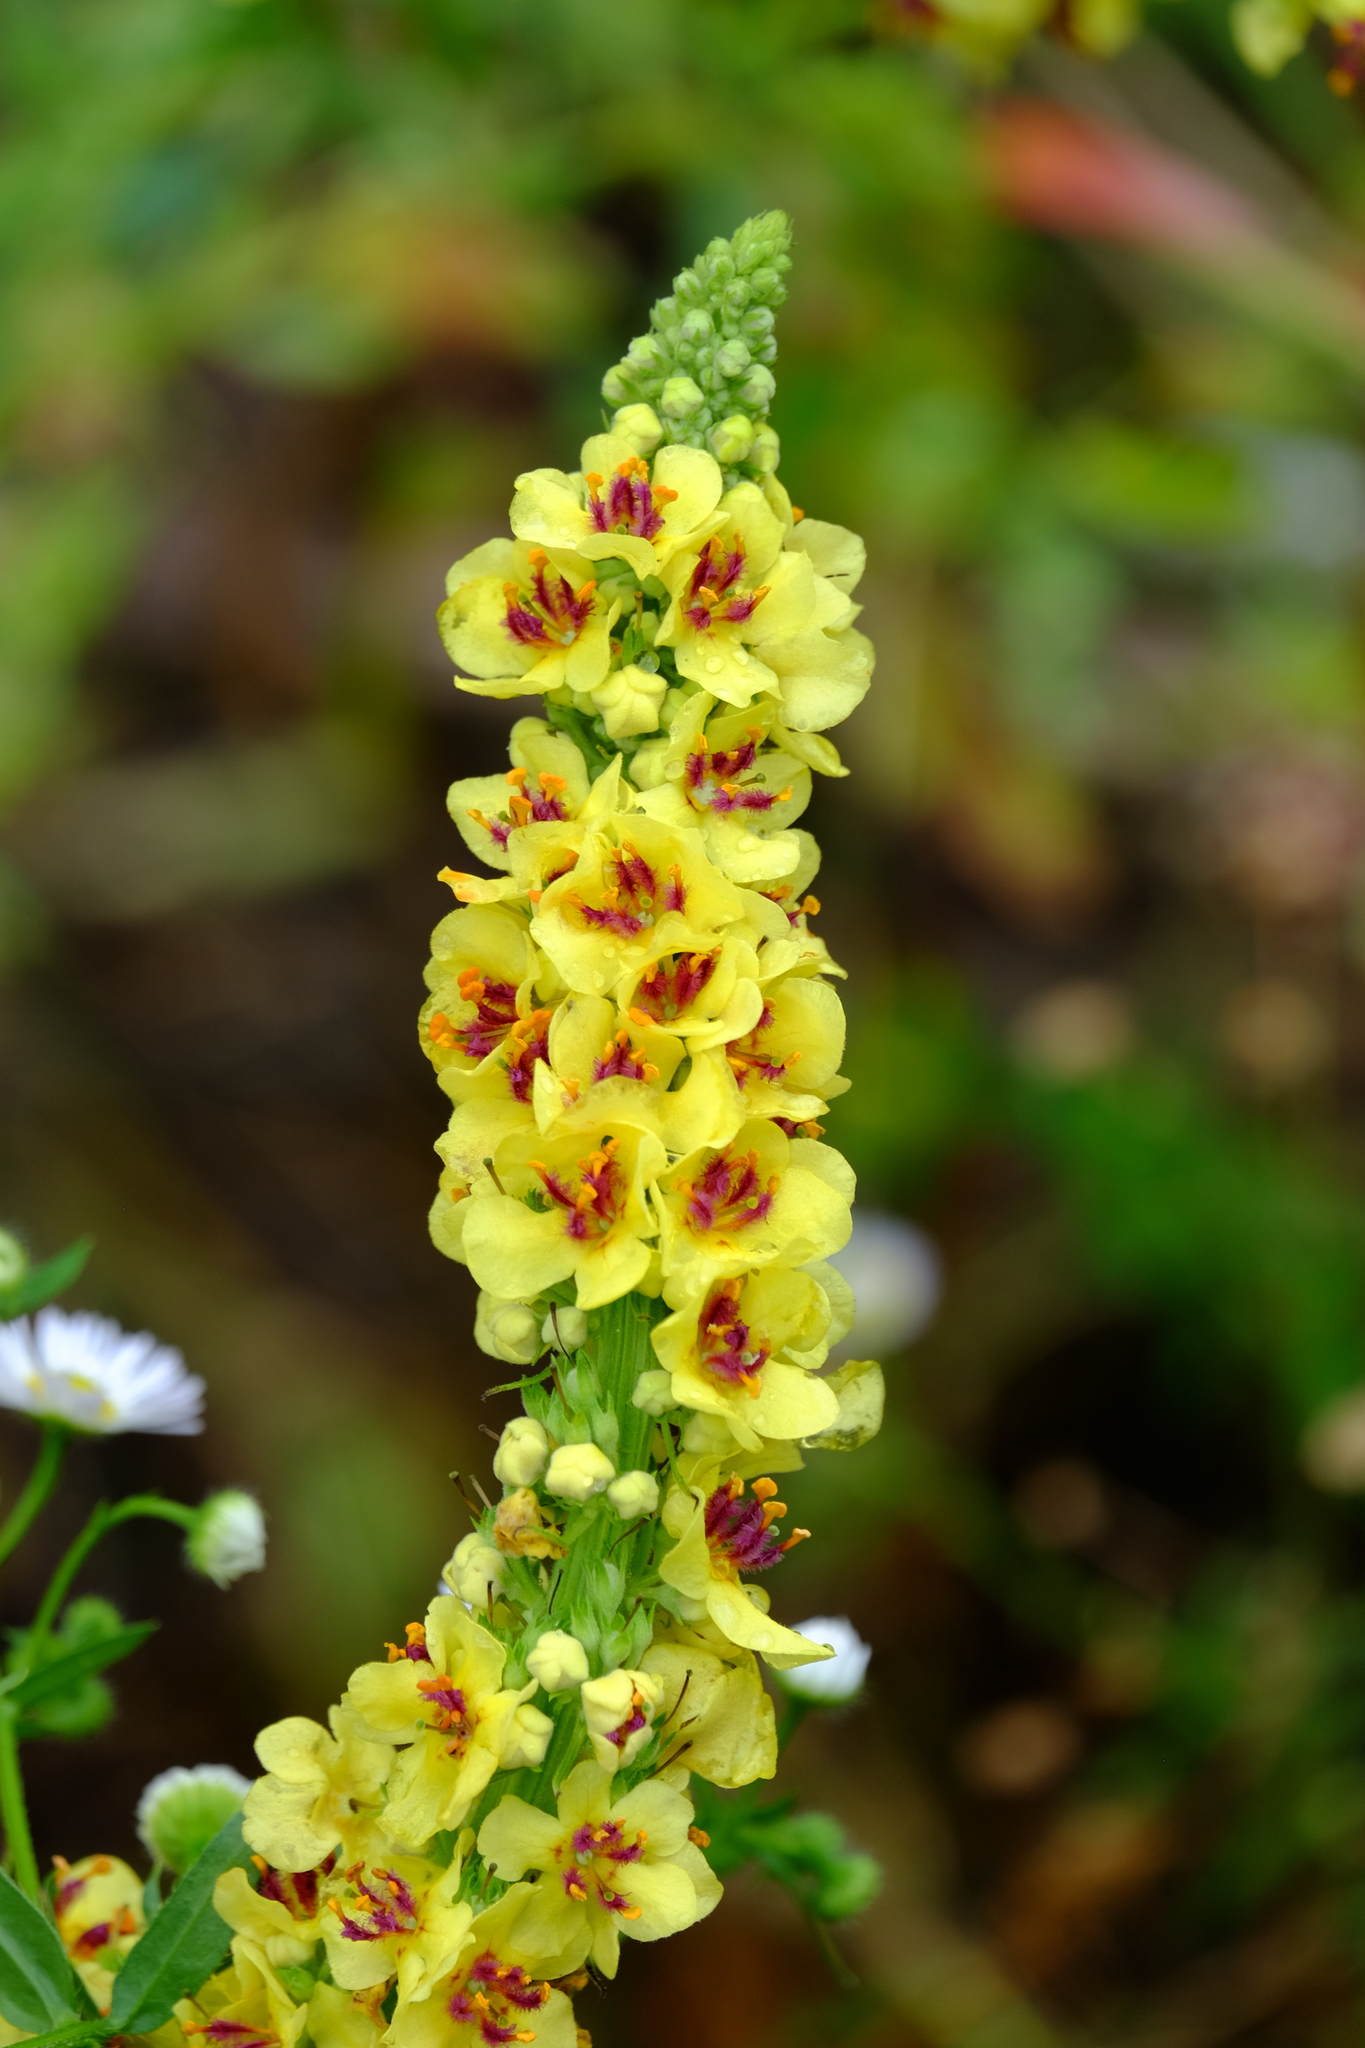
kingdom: Plantae
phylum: Tracheophyta
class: Magnoliopsida
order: Lamiales
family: Scrophulariaceae
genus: Verbascum
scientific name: Verbascum nigrum
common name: Dark mullein
